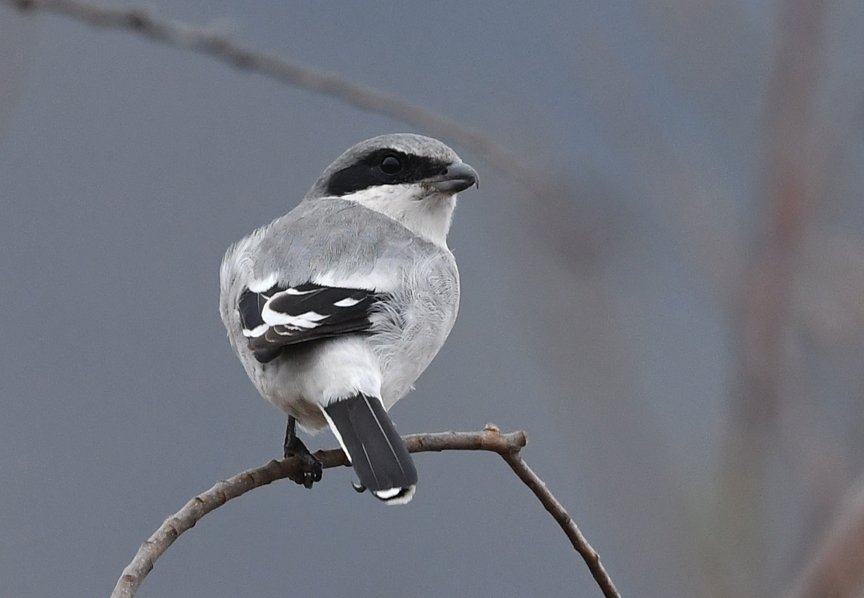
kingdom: Animalia
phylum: Chordata
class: Aves
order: Passeriformes
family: Laniidae
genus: Lanius
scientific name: Lanius ludovicianus
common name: Loggerhead shrike
